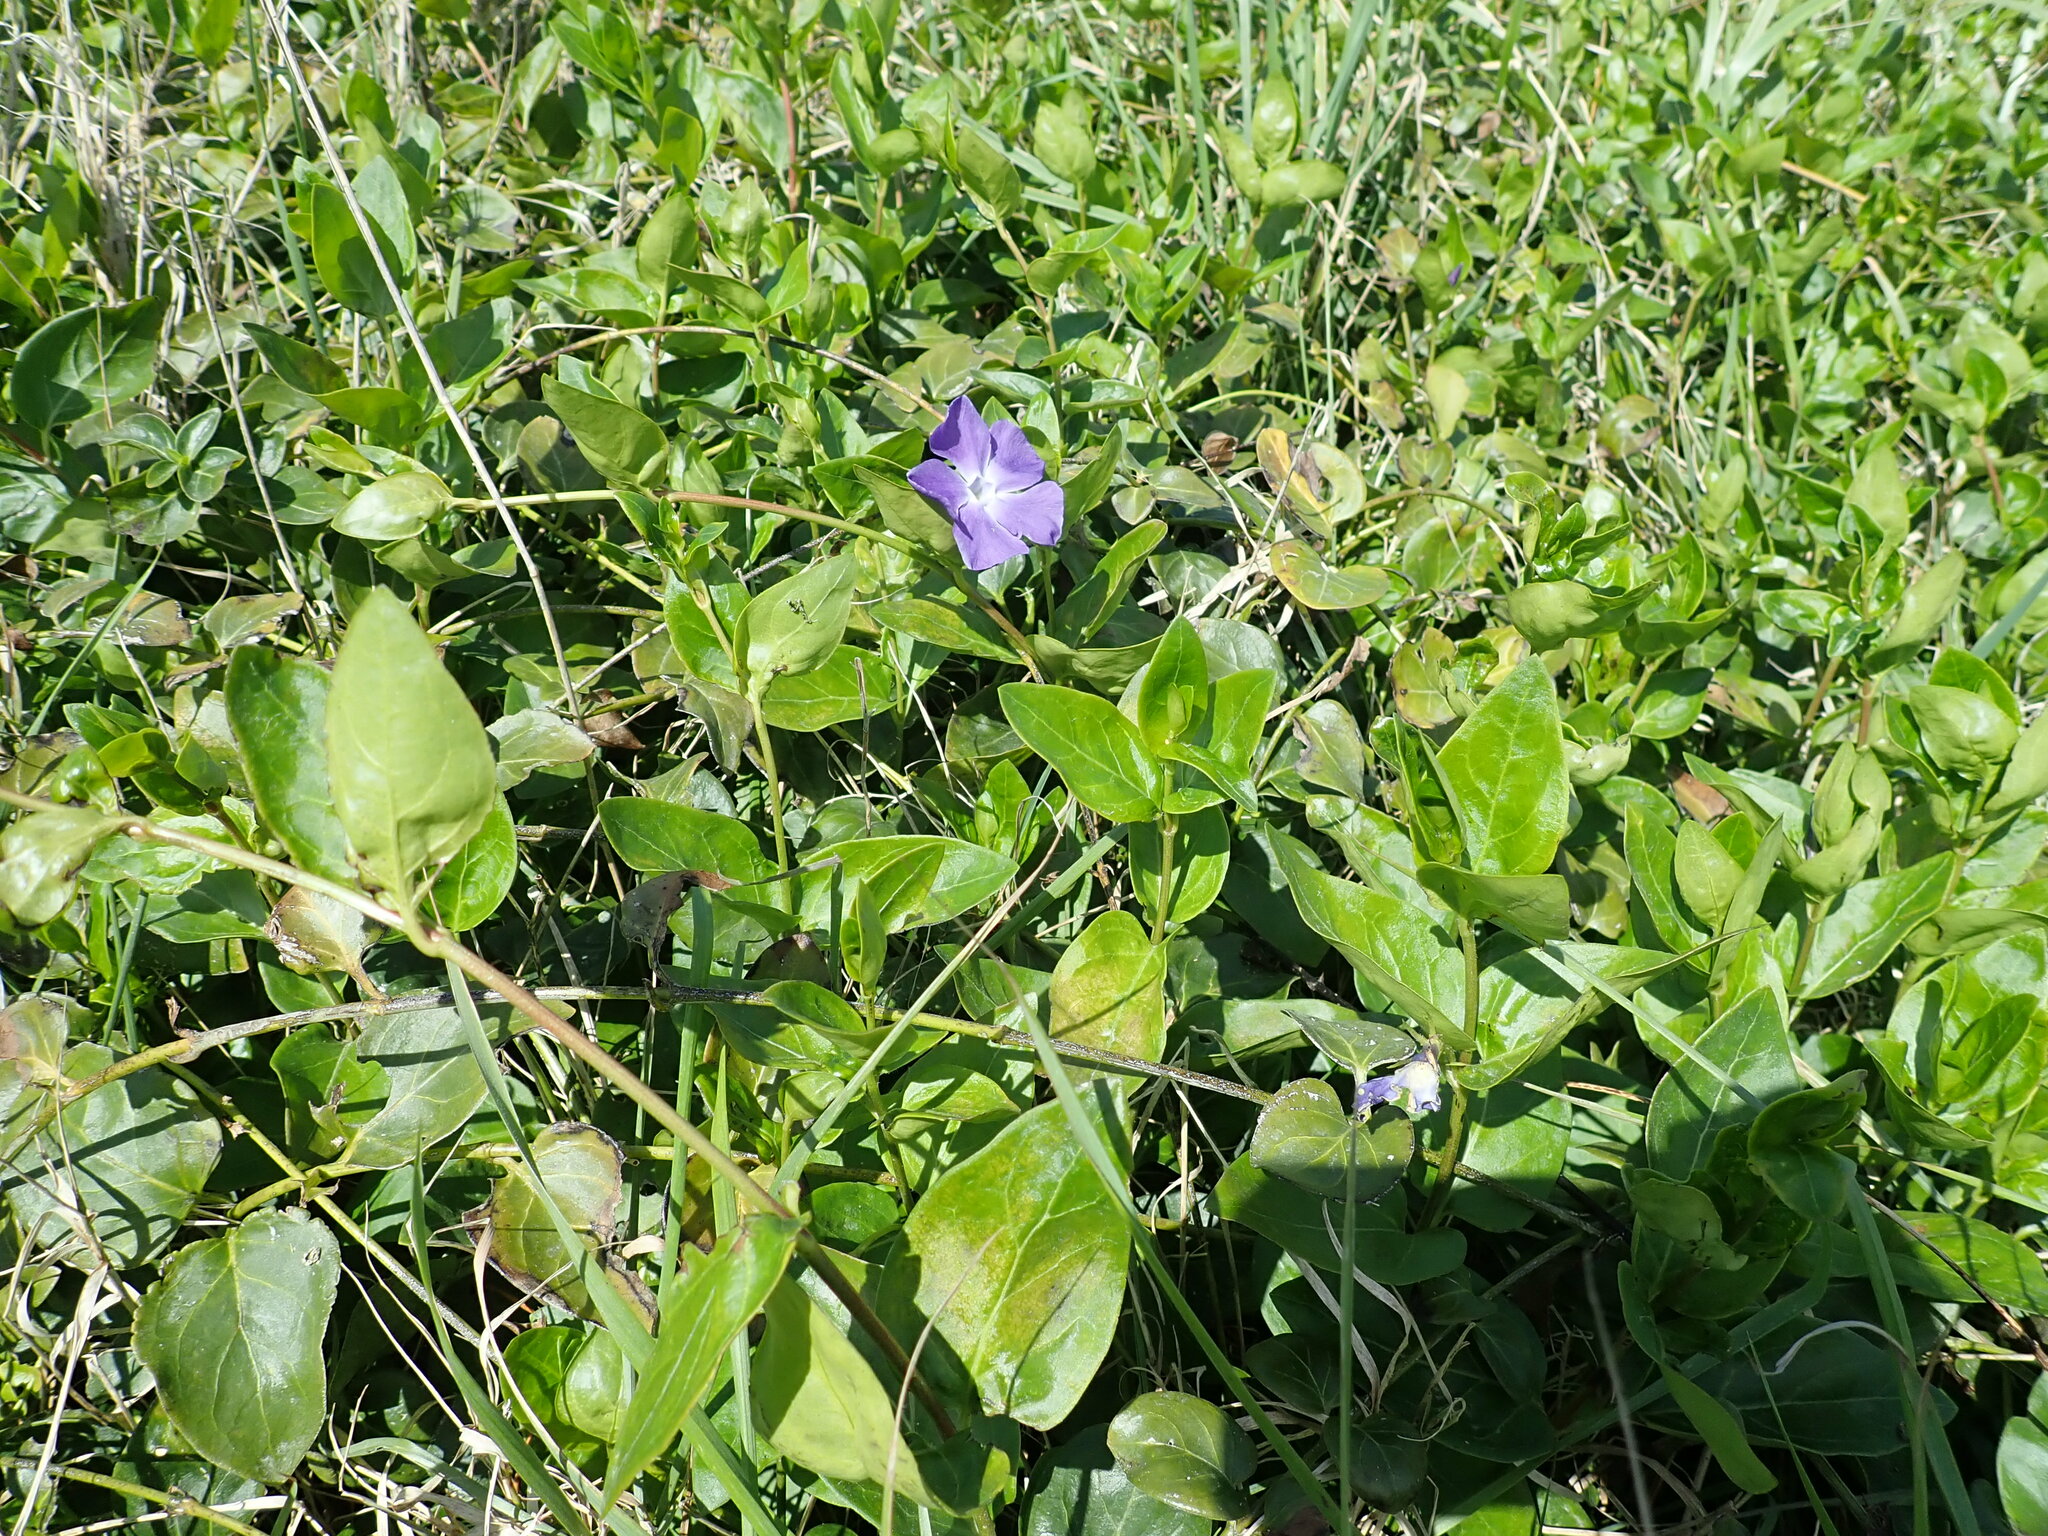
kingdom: Plantae
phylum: Tracheophyta
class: Magnoliopsida
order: Gentianales
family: Apocynaceae
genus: Vinca
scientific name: Vinca major
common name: Greater periwinkle
